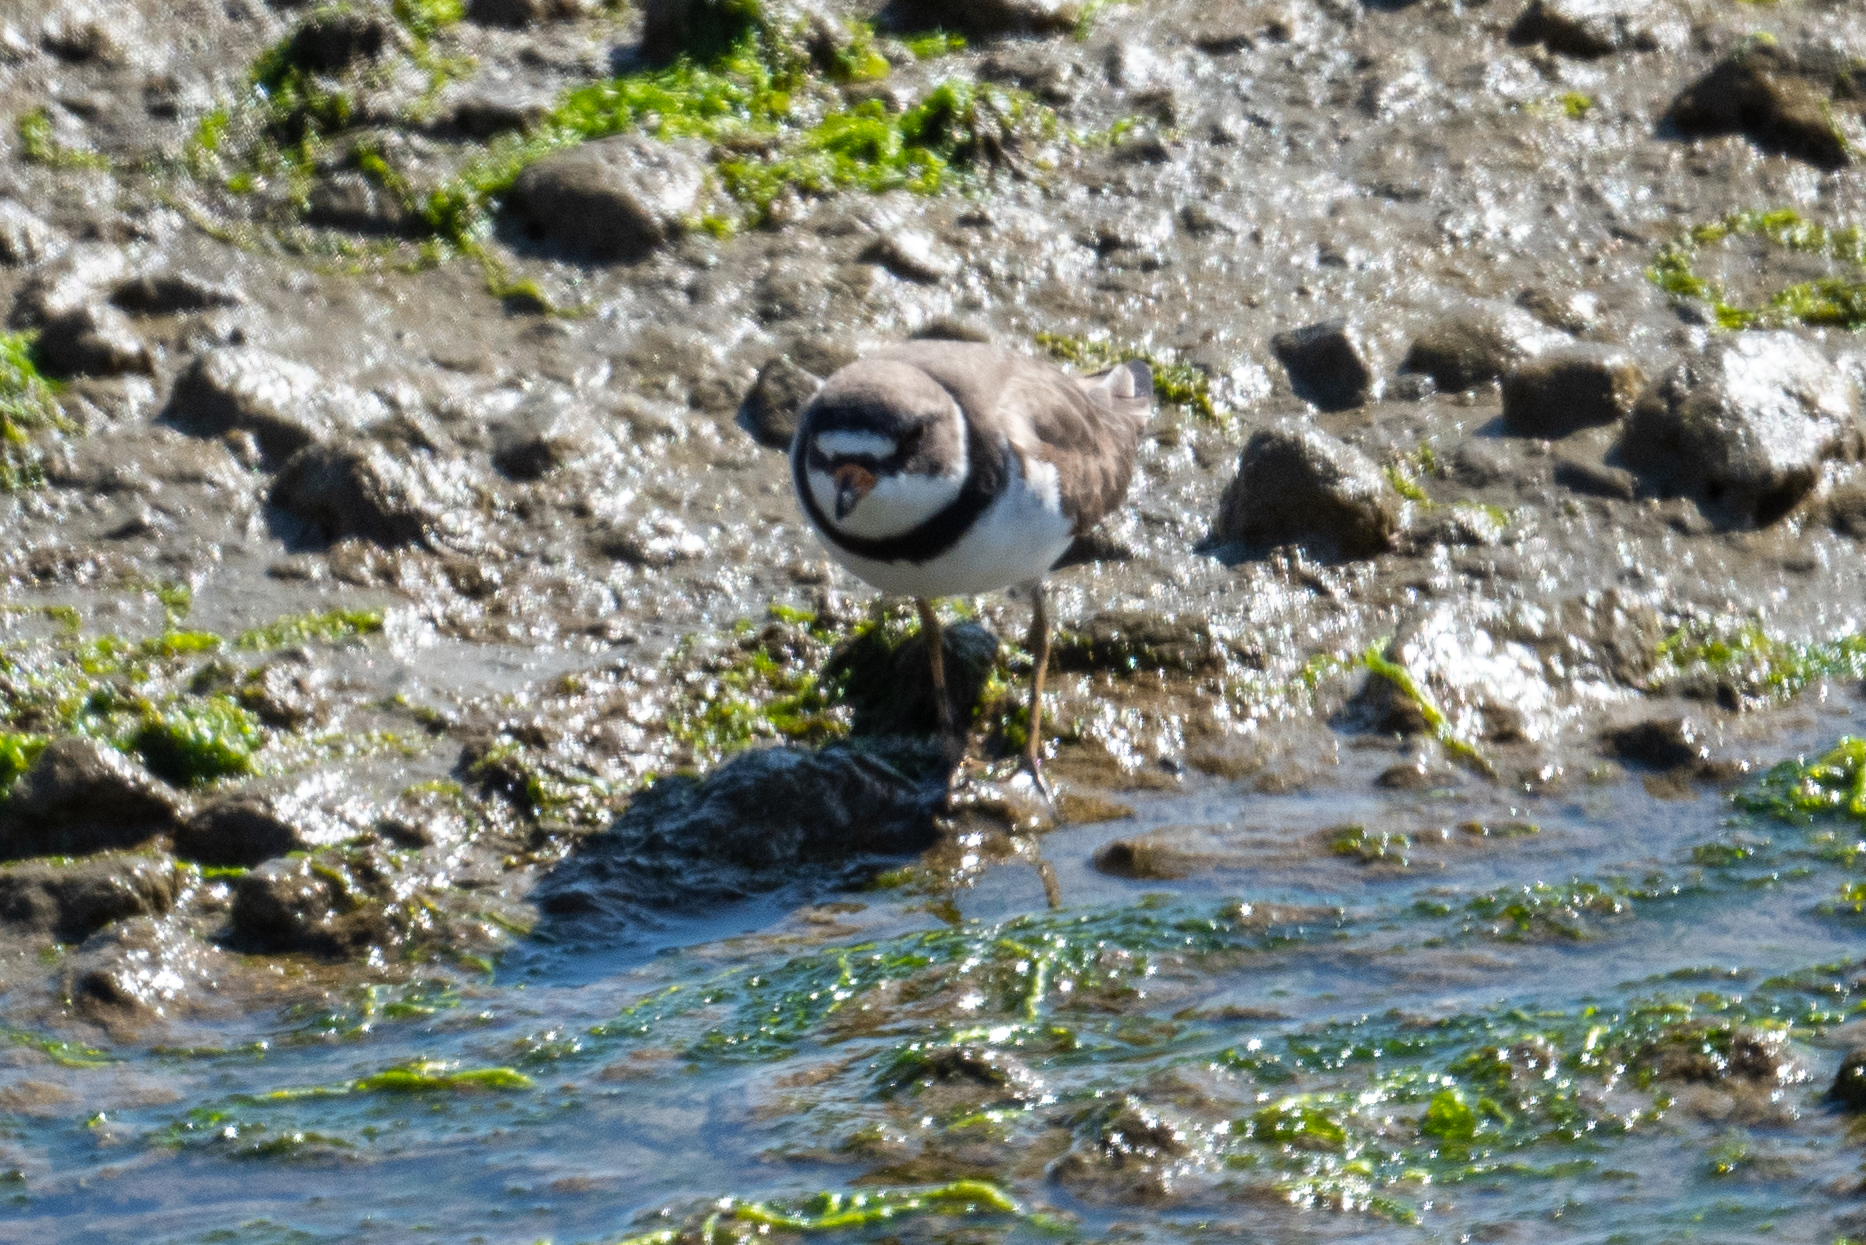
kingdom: Animalia
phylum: Chordata
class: Aves
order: Charadriiformes
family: Charadriidae
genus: Charadrius
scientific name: Charadrius semipalmatus
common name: Semipalmated plover
